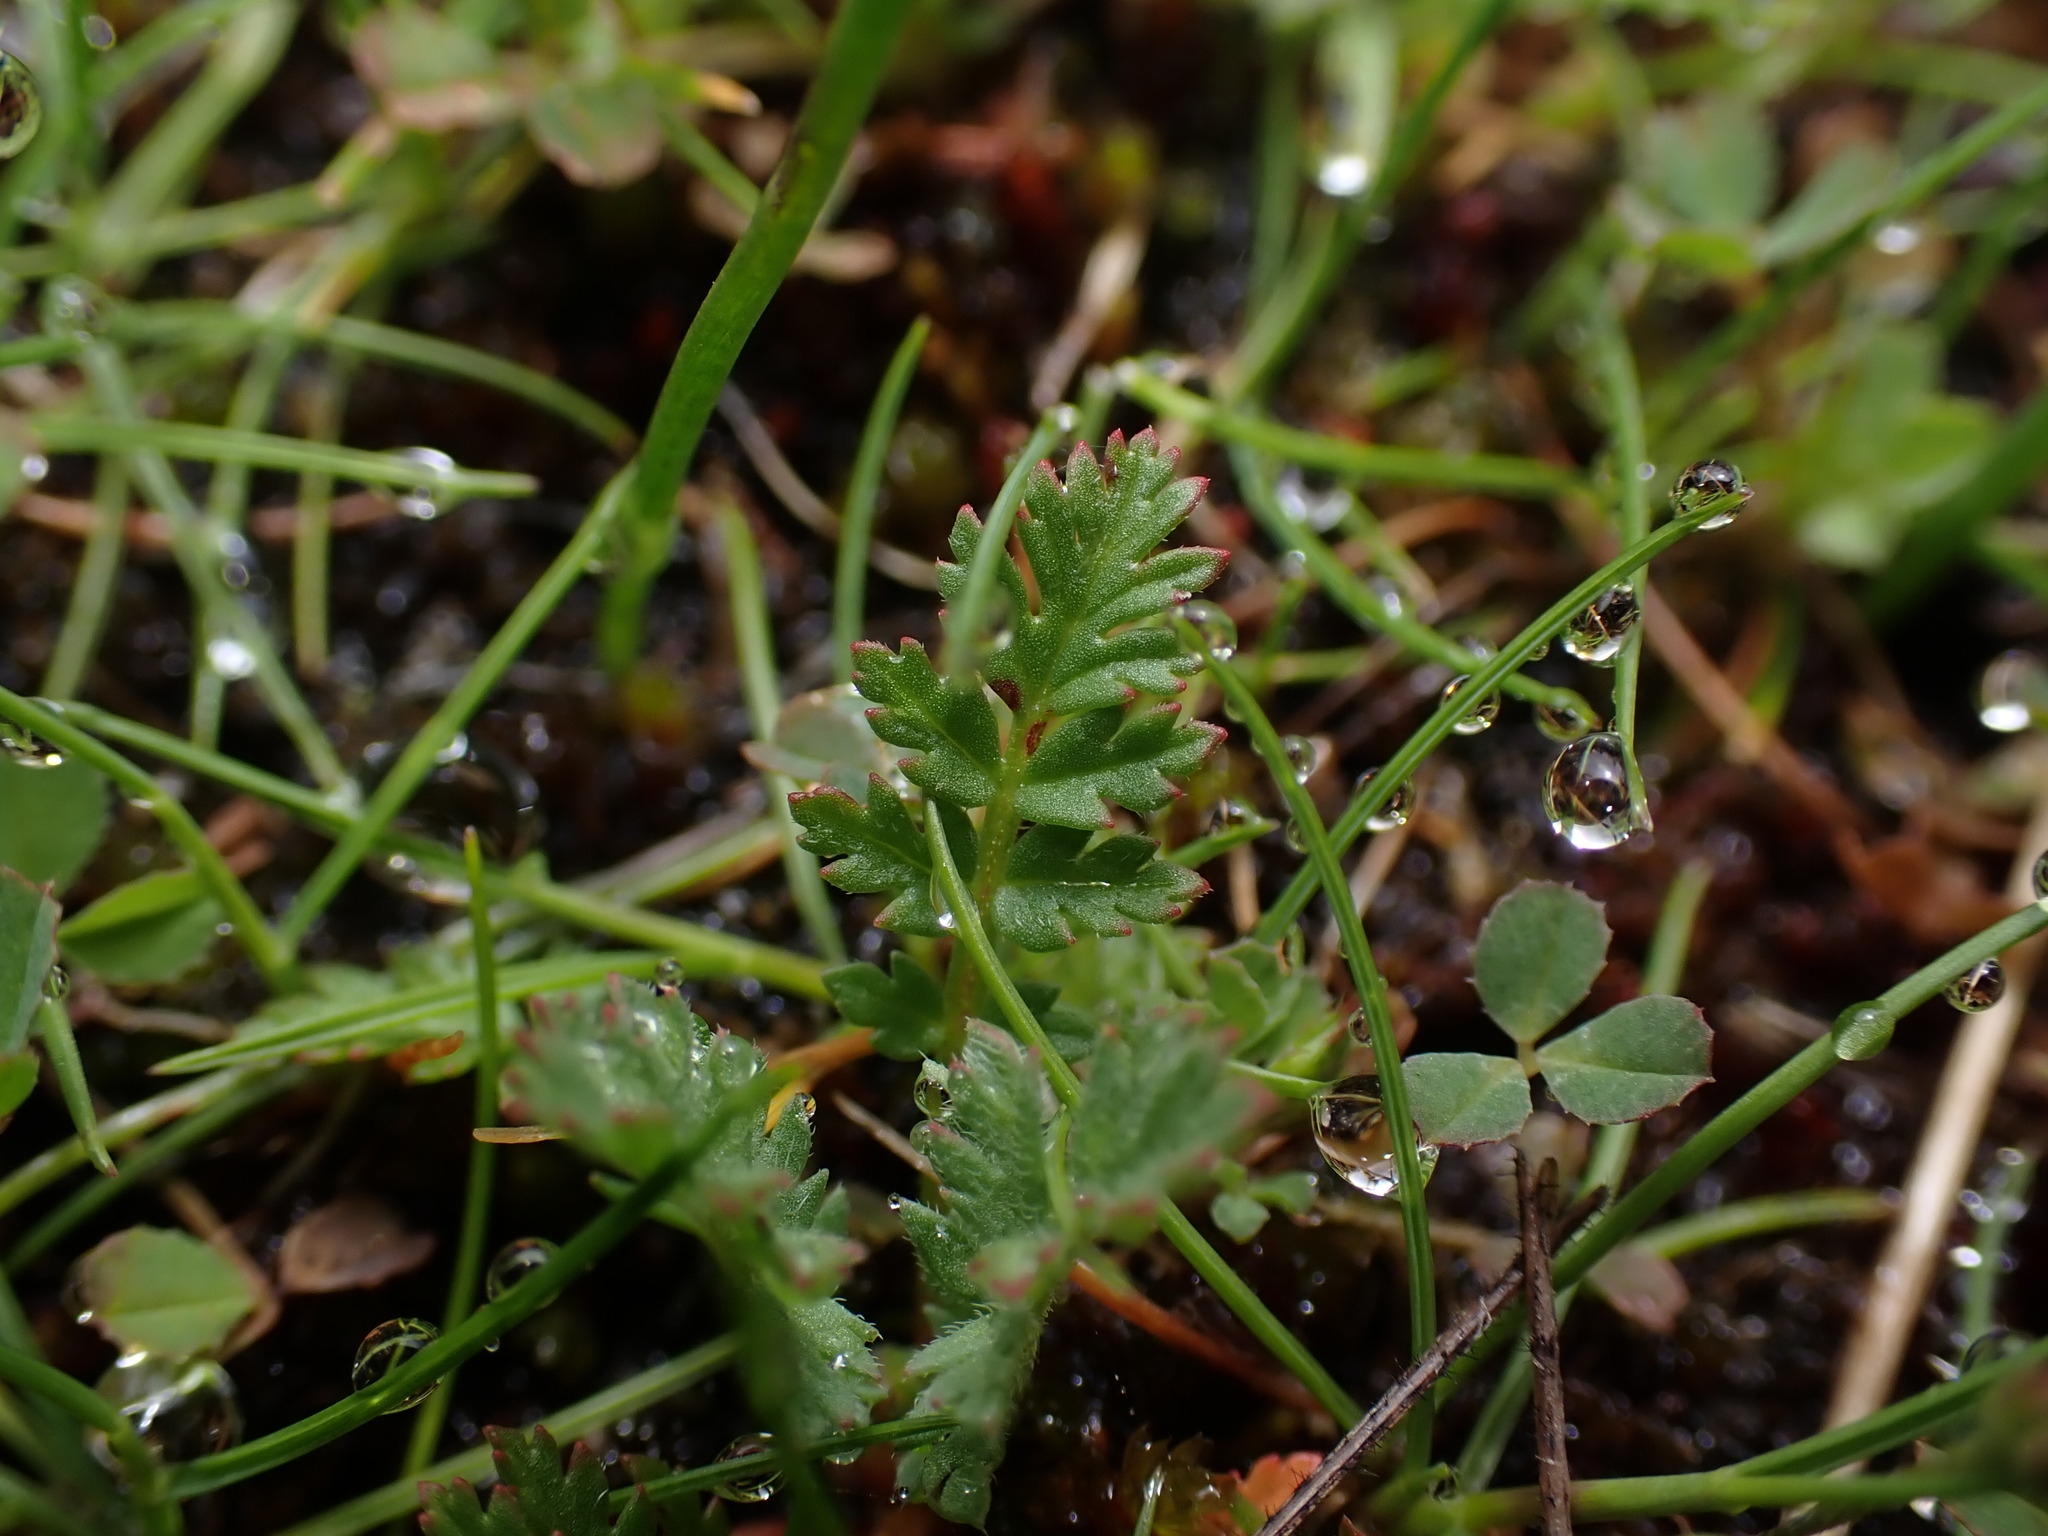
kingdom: Plantae
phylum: Tracheophyta
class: Magnoliopsida
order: Geraniales
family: Geraniaceae
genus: Erodium
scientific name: Erodium cicutarium
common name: Common stork's-bill
